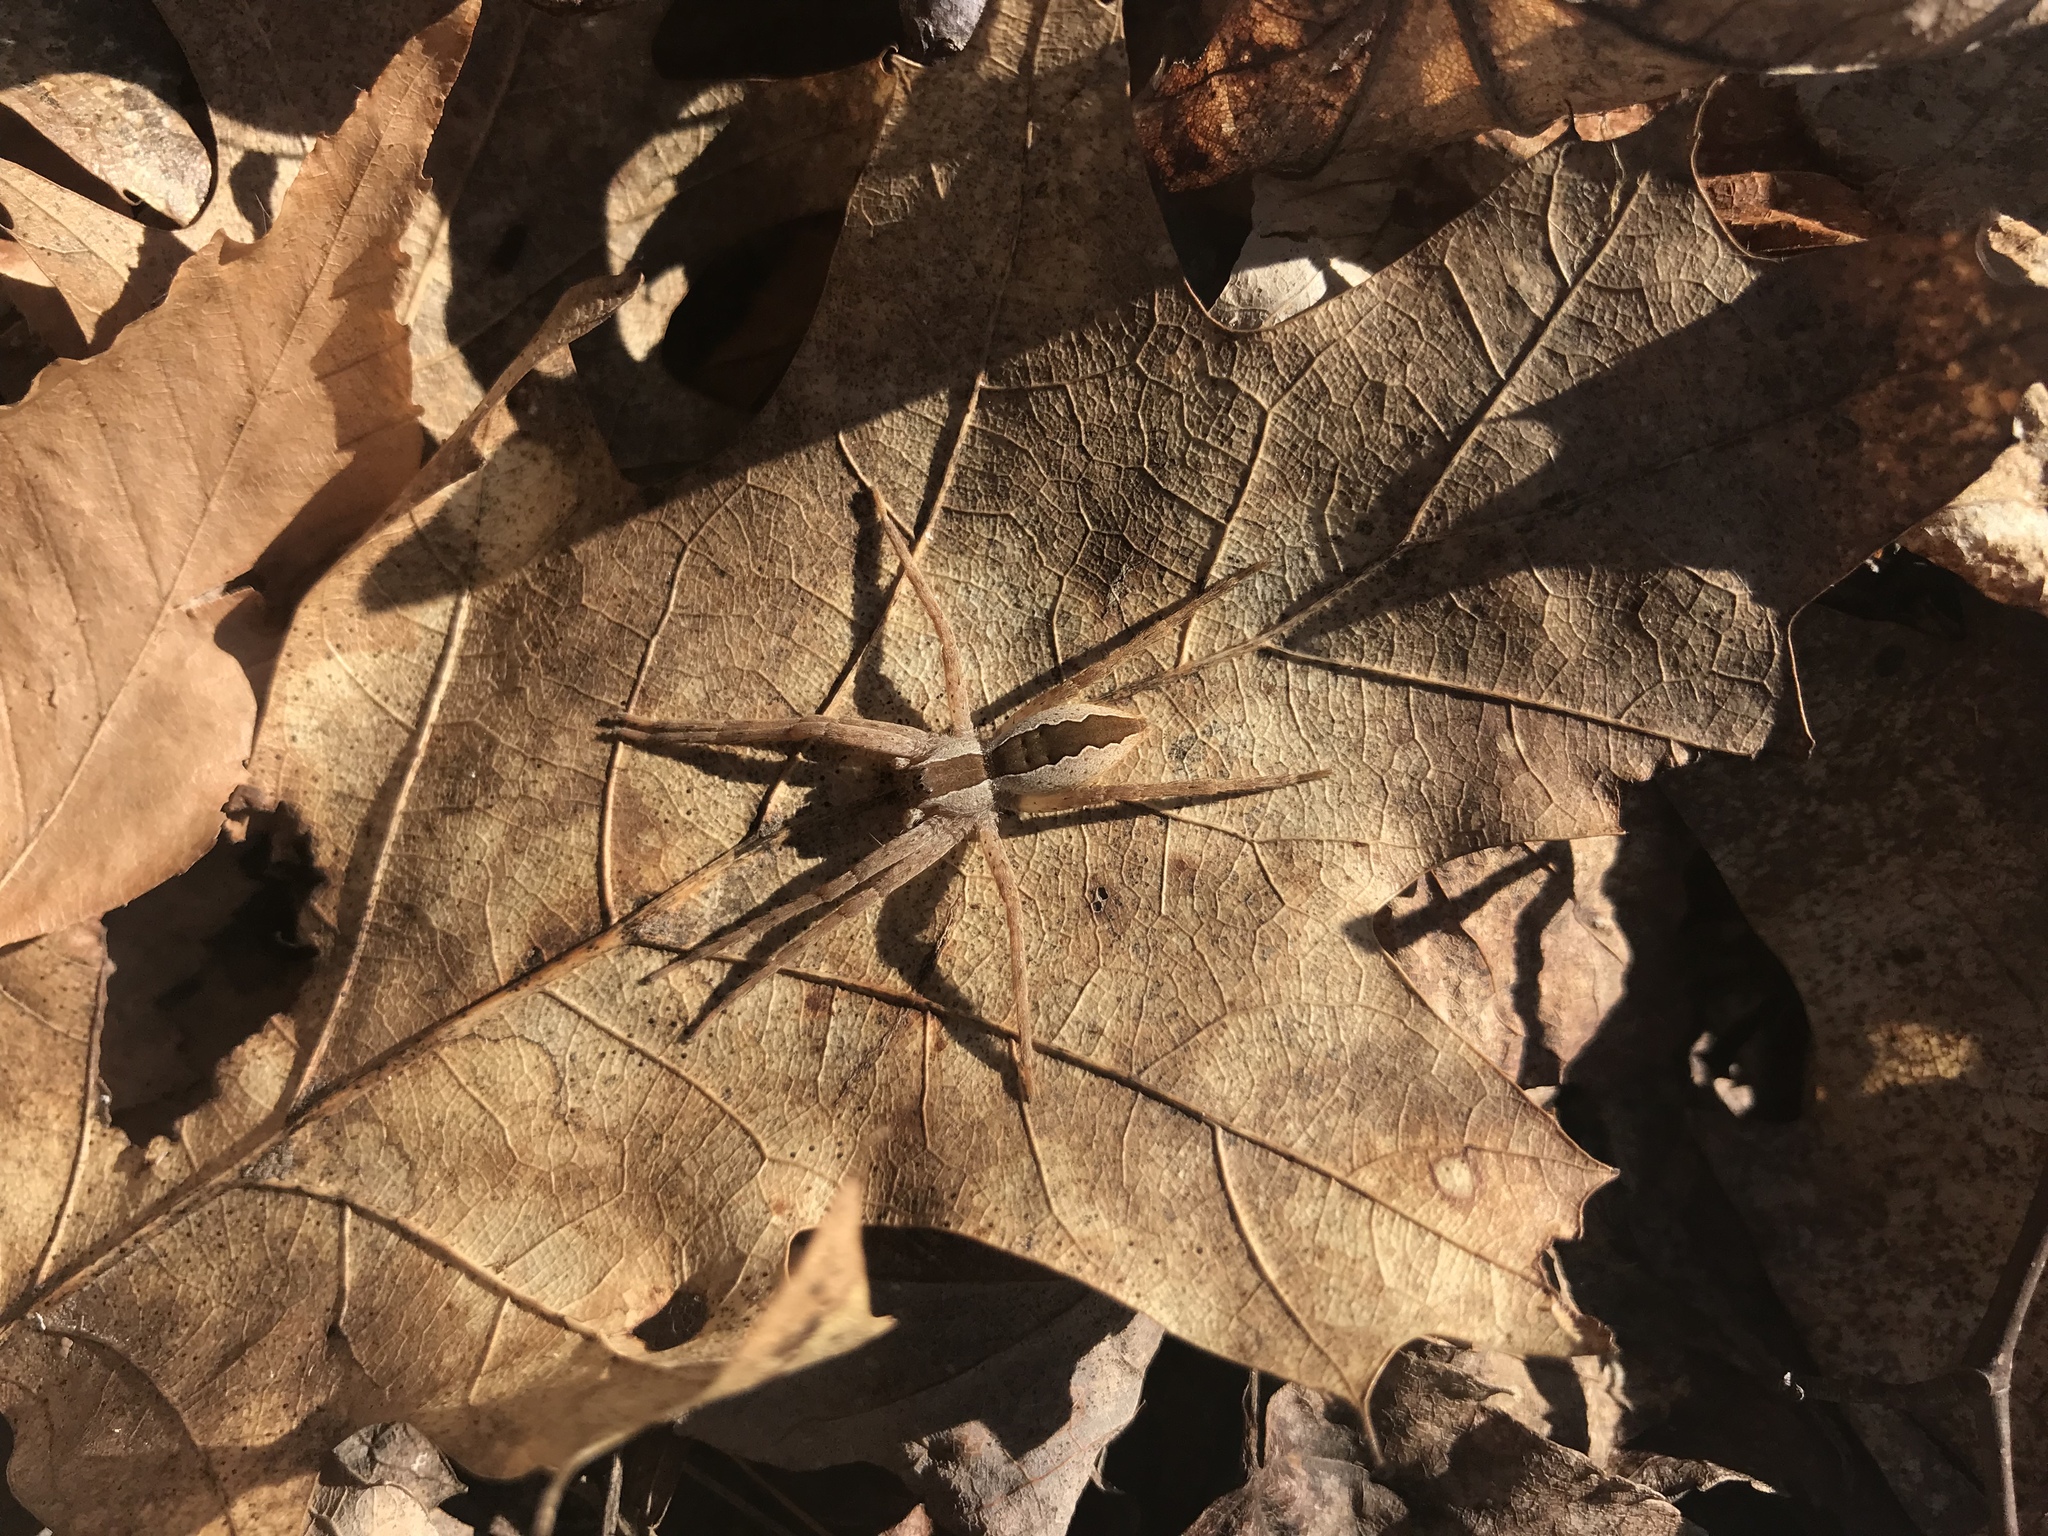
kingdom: Animalia
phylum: Arthropoda
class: Arachnida
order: Araneae
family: Pisauridae
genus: Pisaurina
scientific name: Pisaurina mira
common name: American nursery web spider
